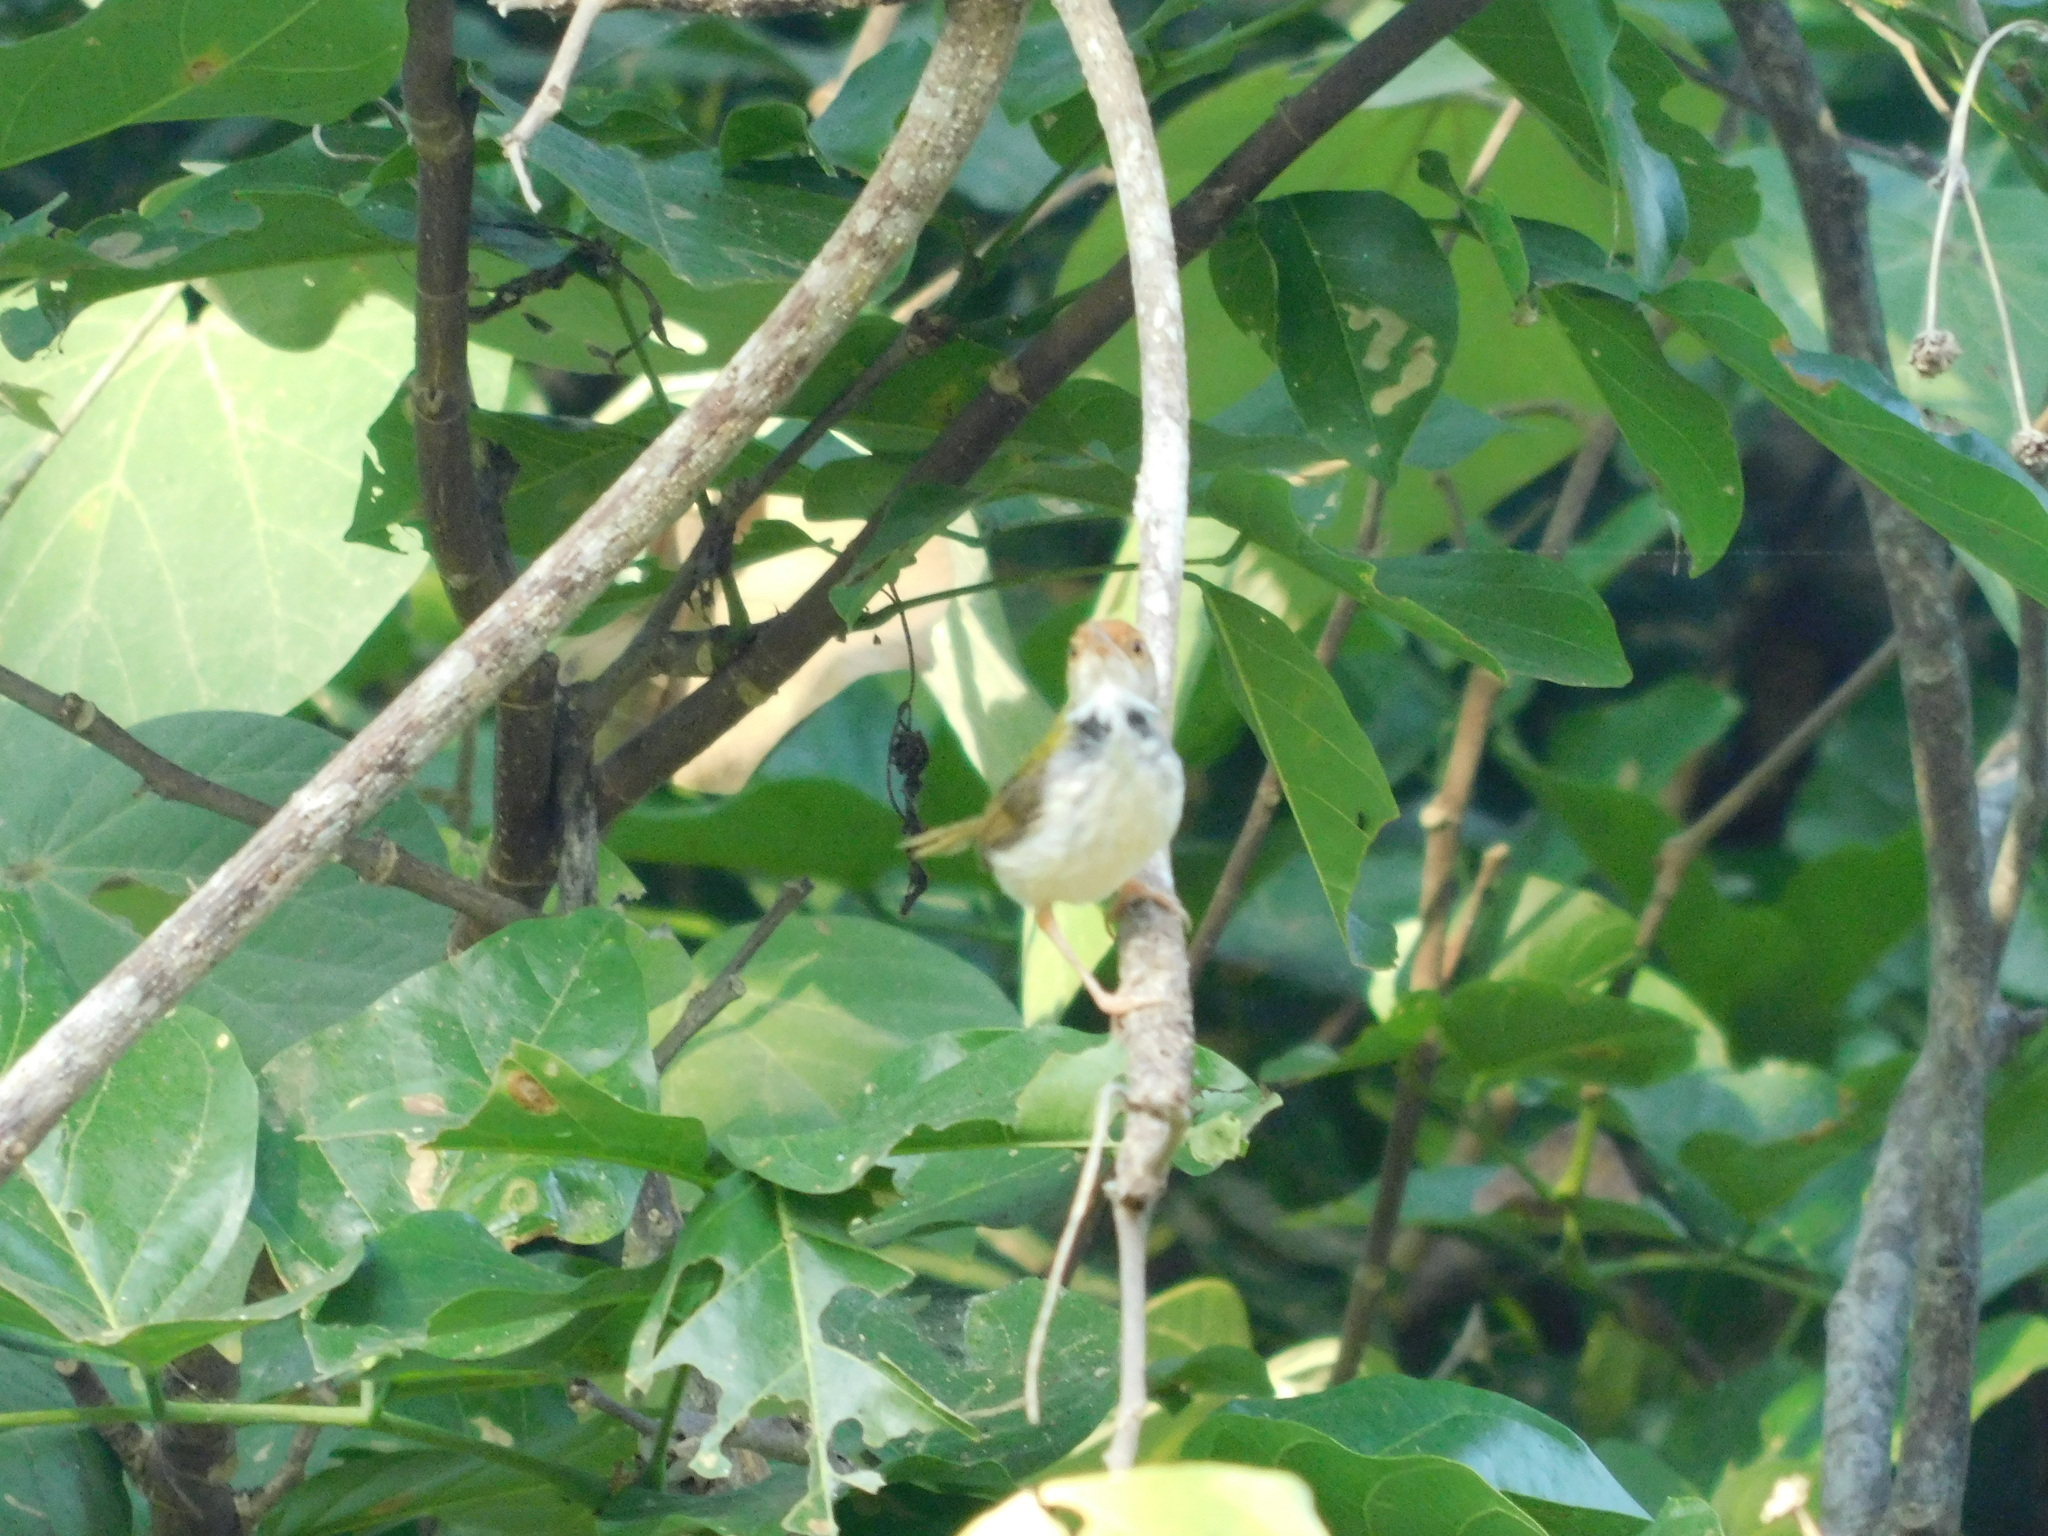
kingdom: Animalia
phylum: Chordata
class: Aves
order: Passeriformes
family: Cisticolidae
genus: Orthotomus
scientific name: Orthotomus sutorius
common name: Common tailorbird
